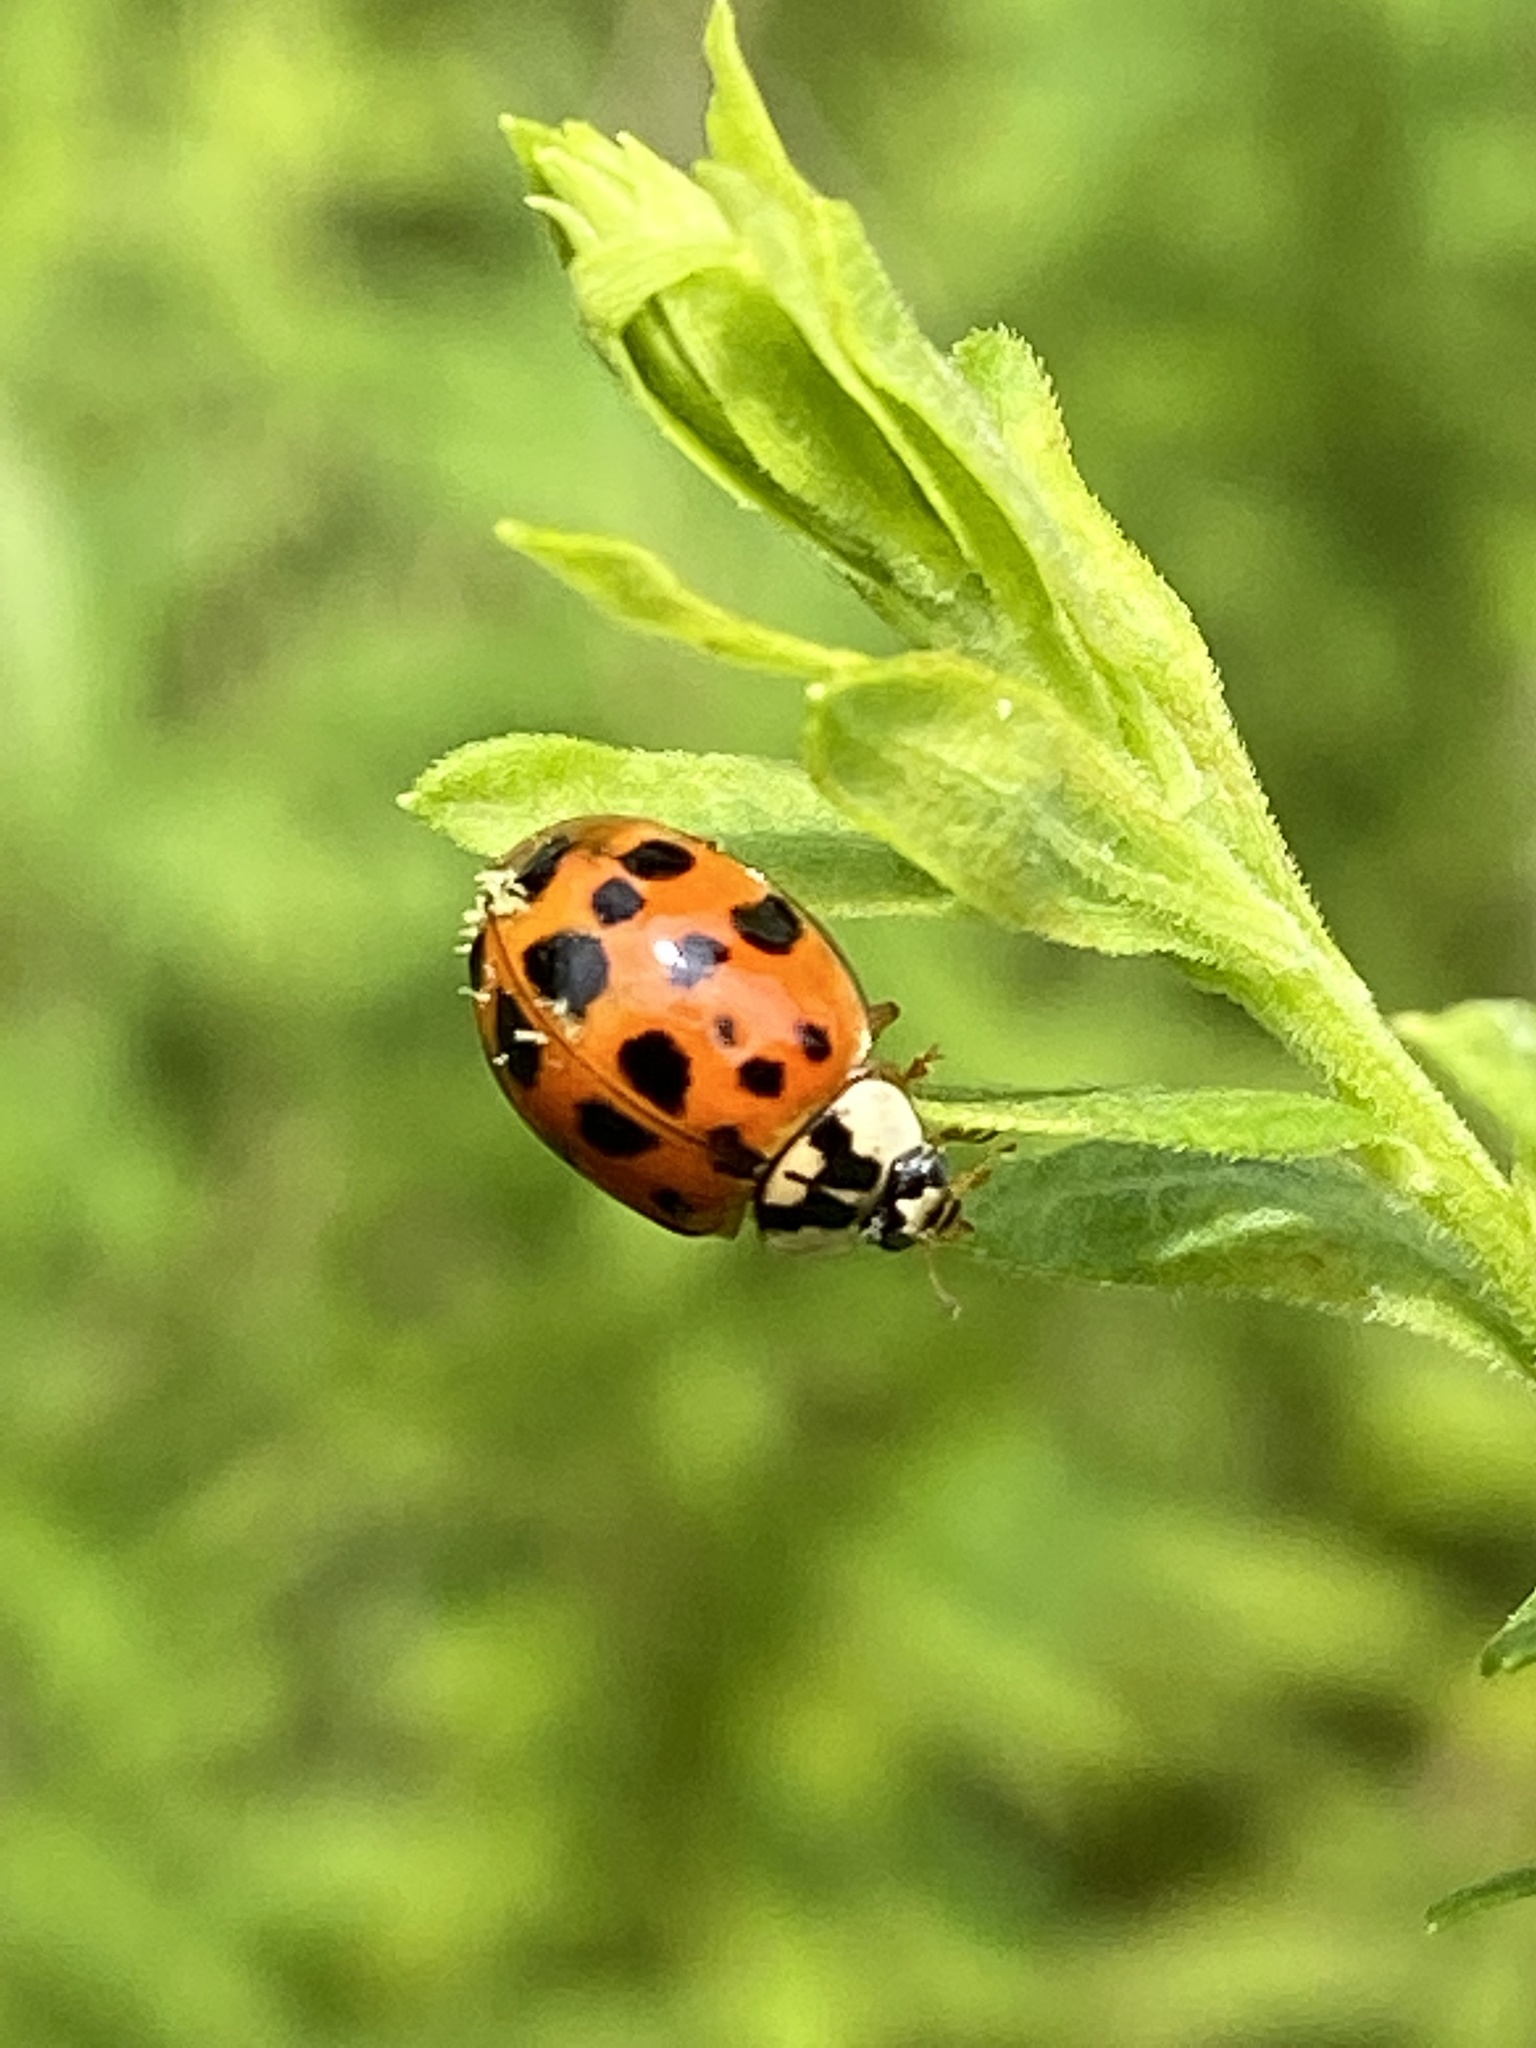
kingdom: Fungi
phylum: Ascomycota
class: Laboulbeniomycetes
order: Laboulbeniales
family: Laboulbeniaceae
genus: Hesperomyces
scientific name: Hesperomyces harmoniae
